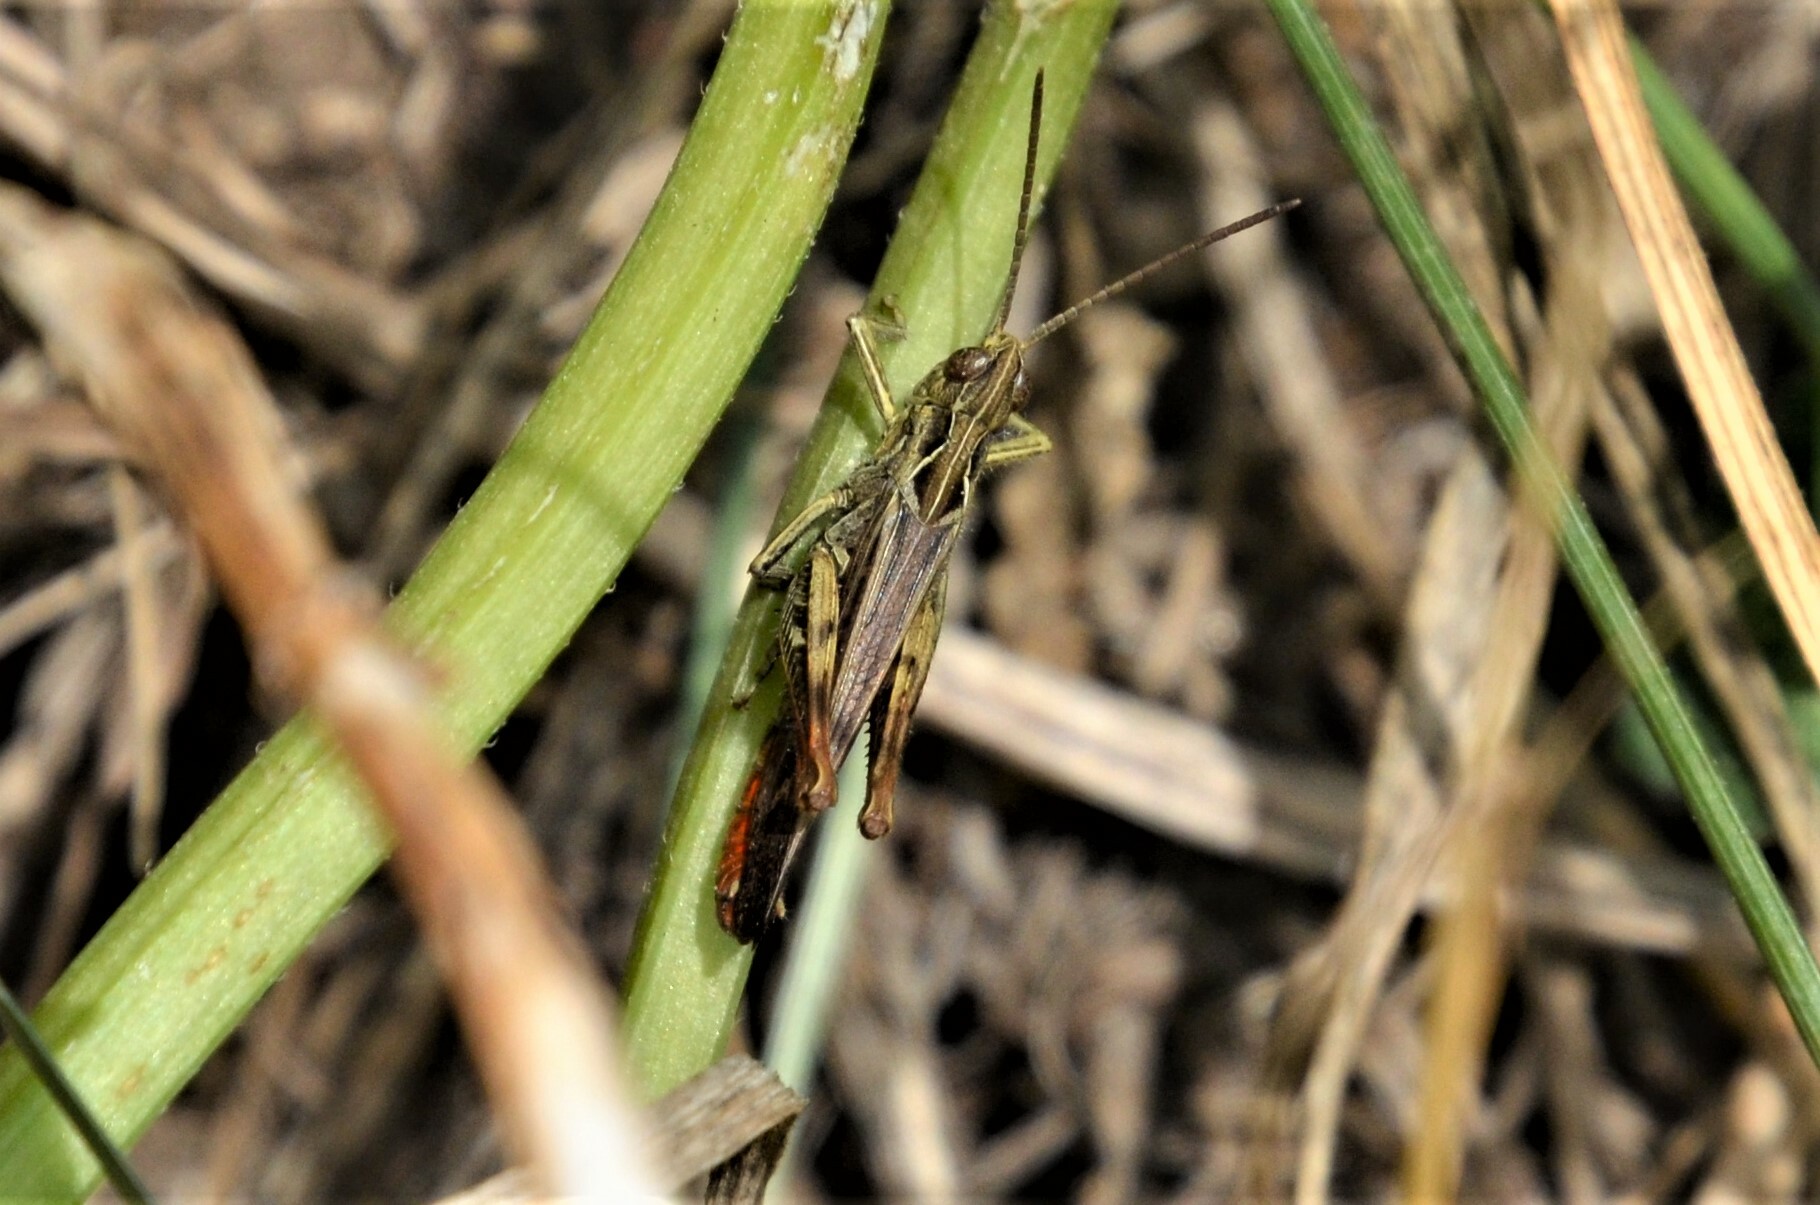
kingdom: Animalia
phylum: Arthropoda
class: Insecta
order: Orthoptera
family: Acrididae
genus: Chorthippus
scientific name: Chorthippus biguttulus
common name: Bow-winged grasshopper
